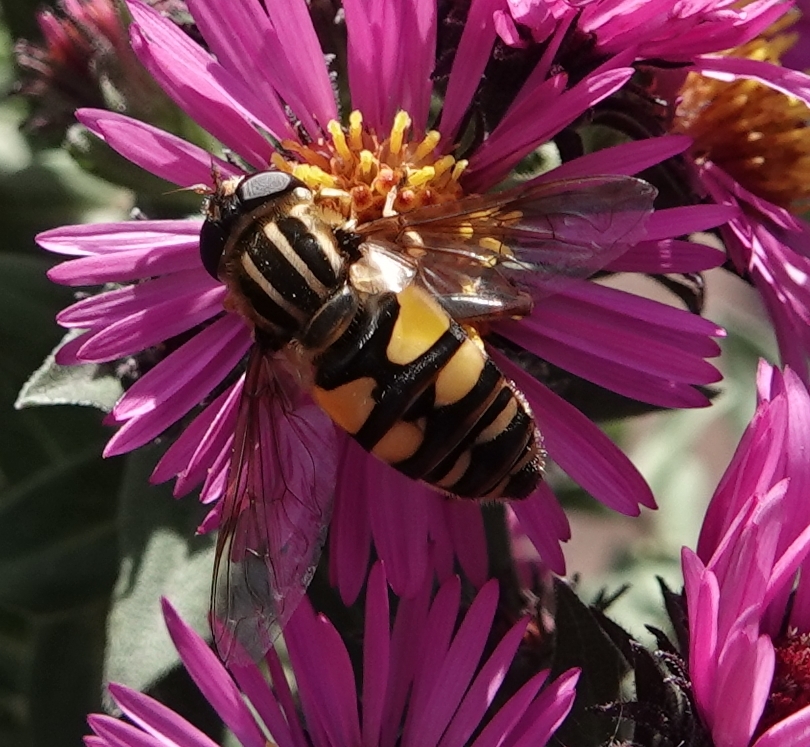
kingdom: Animalia
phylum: Arthropoda
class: Insecta
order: Diptera
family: Syrphidae
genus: Helophilus
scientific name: Helophilus fasciatus
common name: Narrow-headed marsh fly
